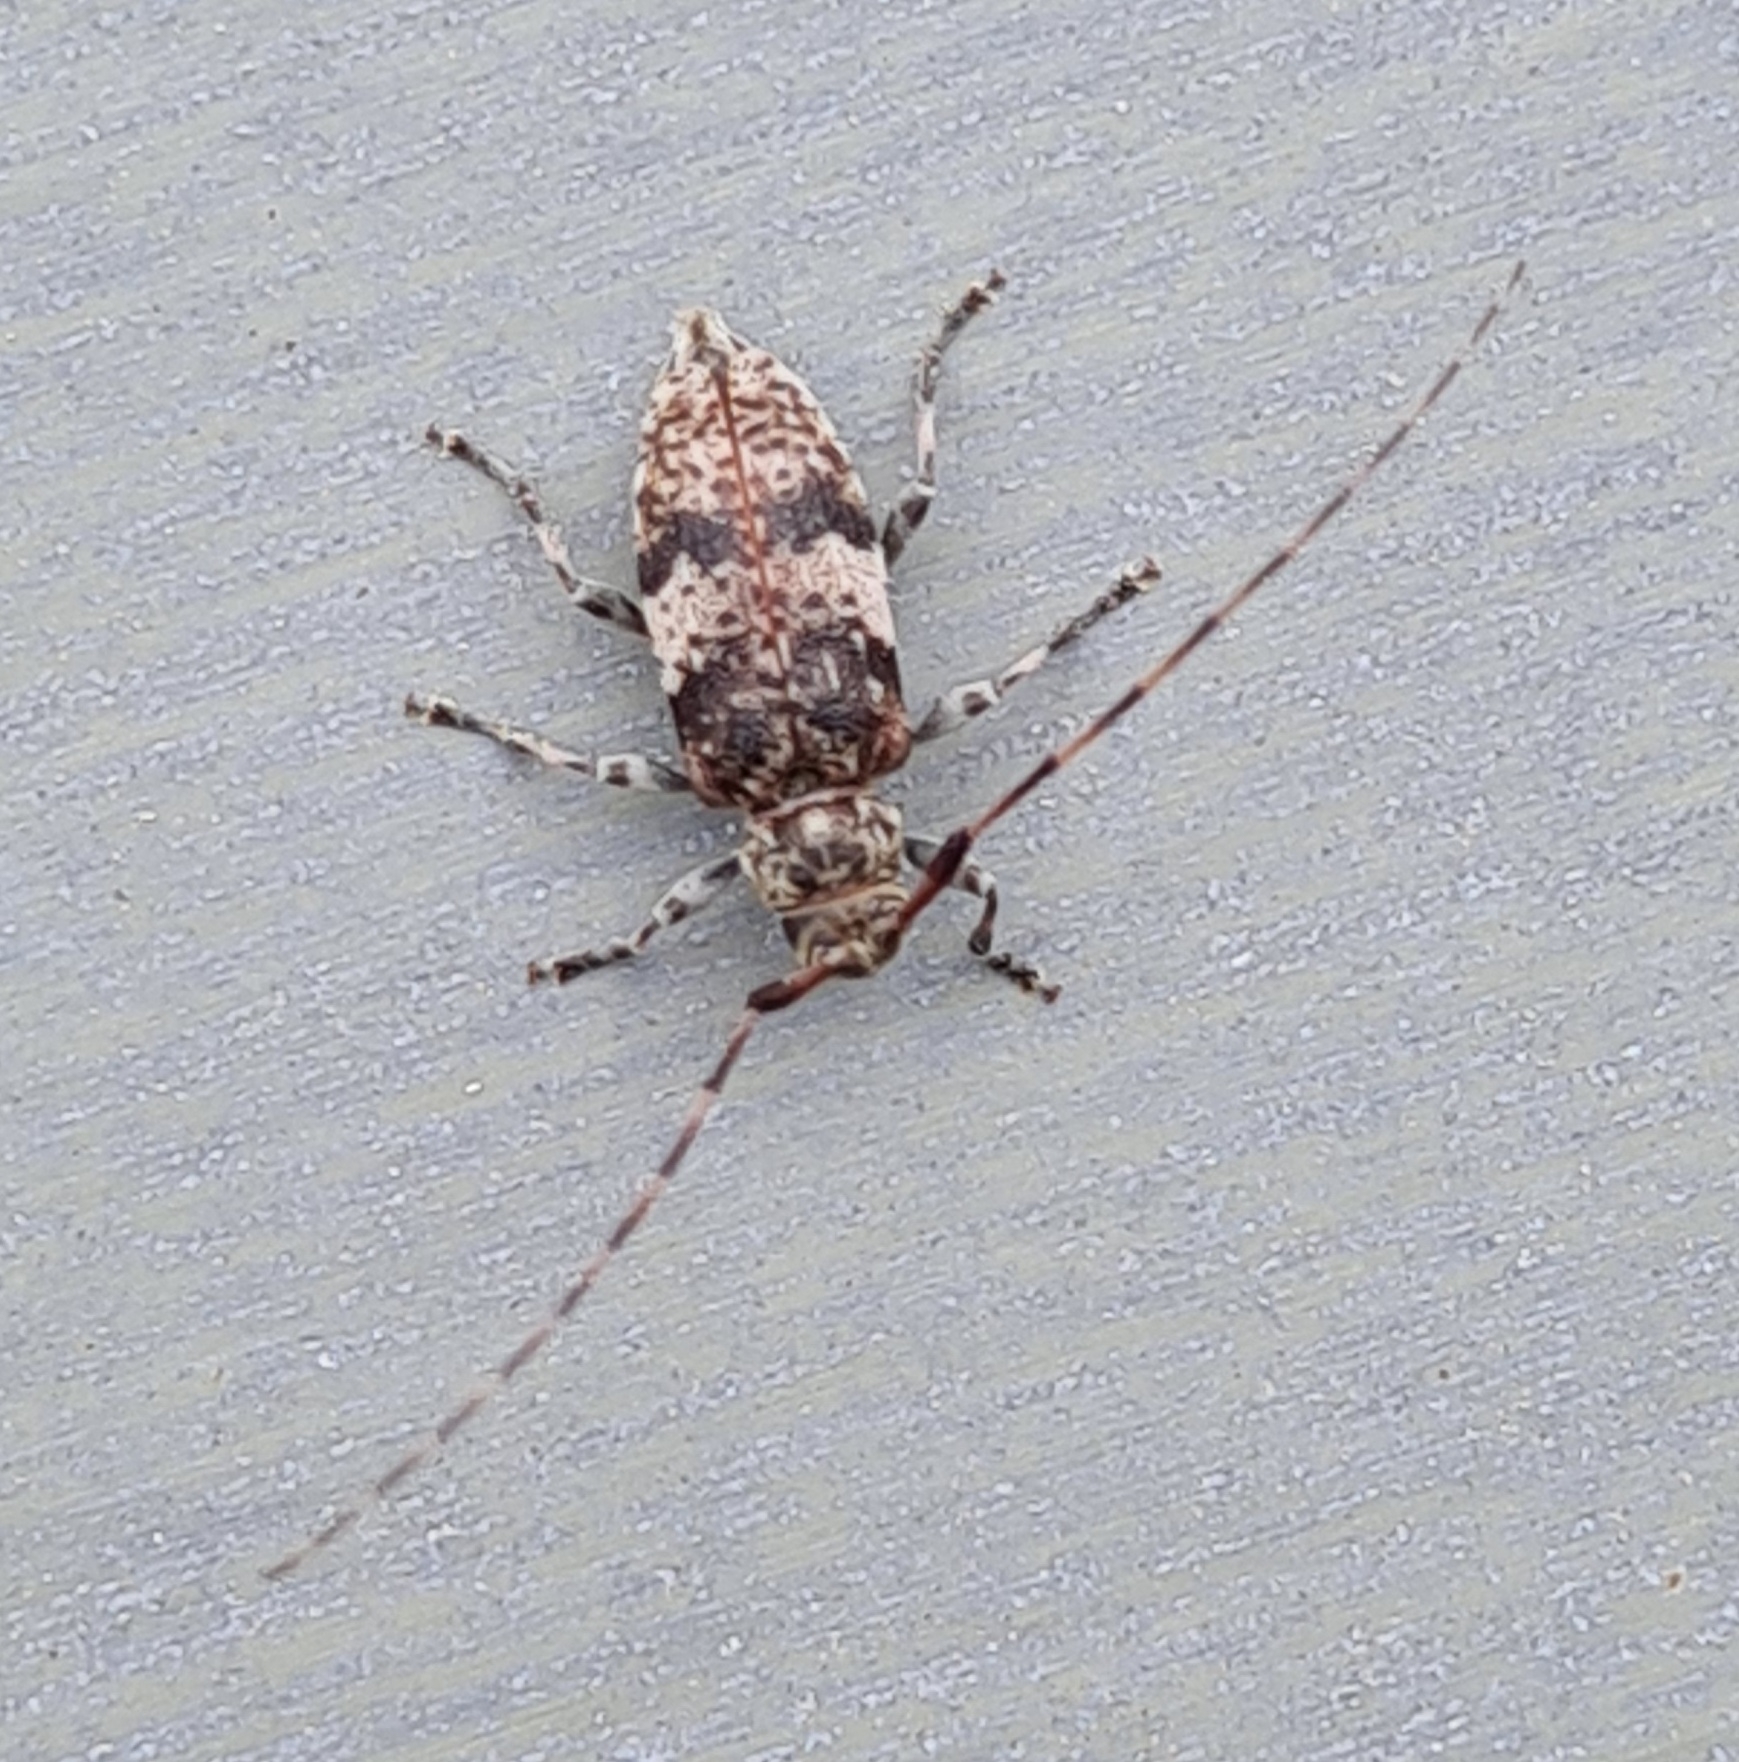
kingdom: Animalia
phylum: Arthropoda
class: Insecta
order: Coleoptera
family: Cerambycidae
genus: Leiopus
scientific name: Leiopus
